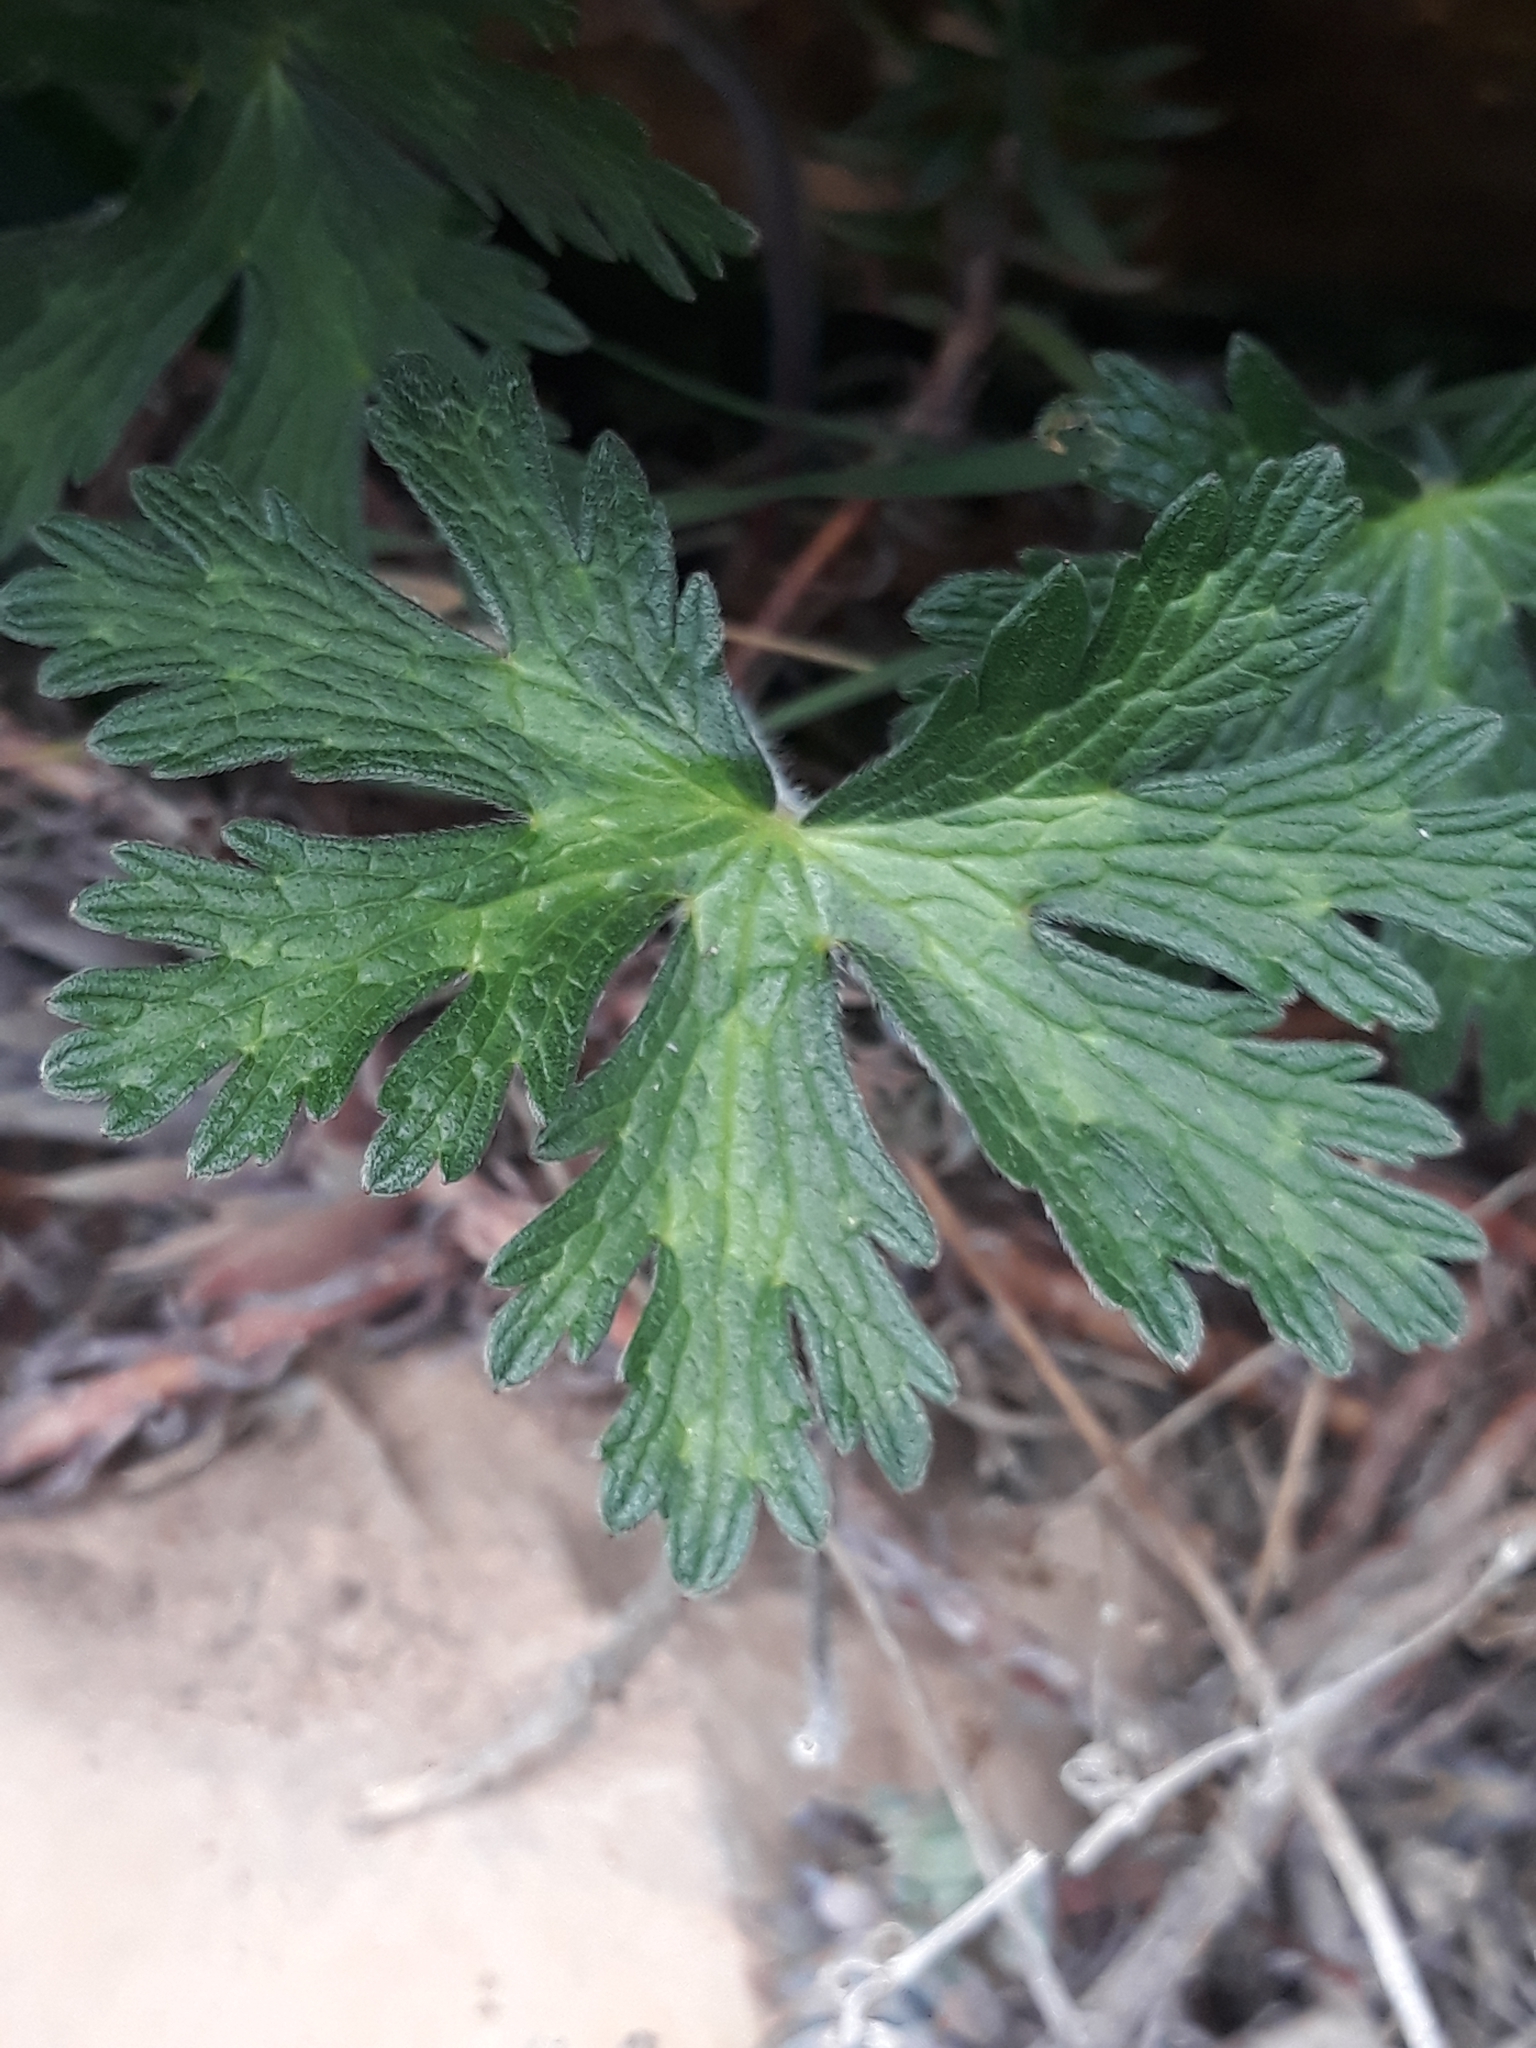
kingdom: Plantae
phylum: Tracheophyta
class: Magnoliopsida
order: Geraniales
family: Geraniaceae
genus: Geranium
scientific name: Geranium atlanticum
